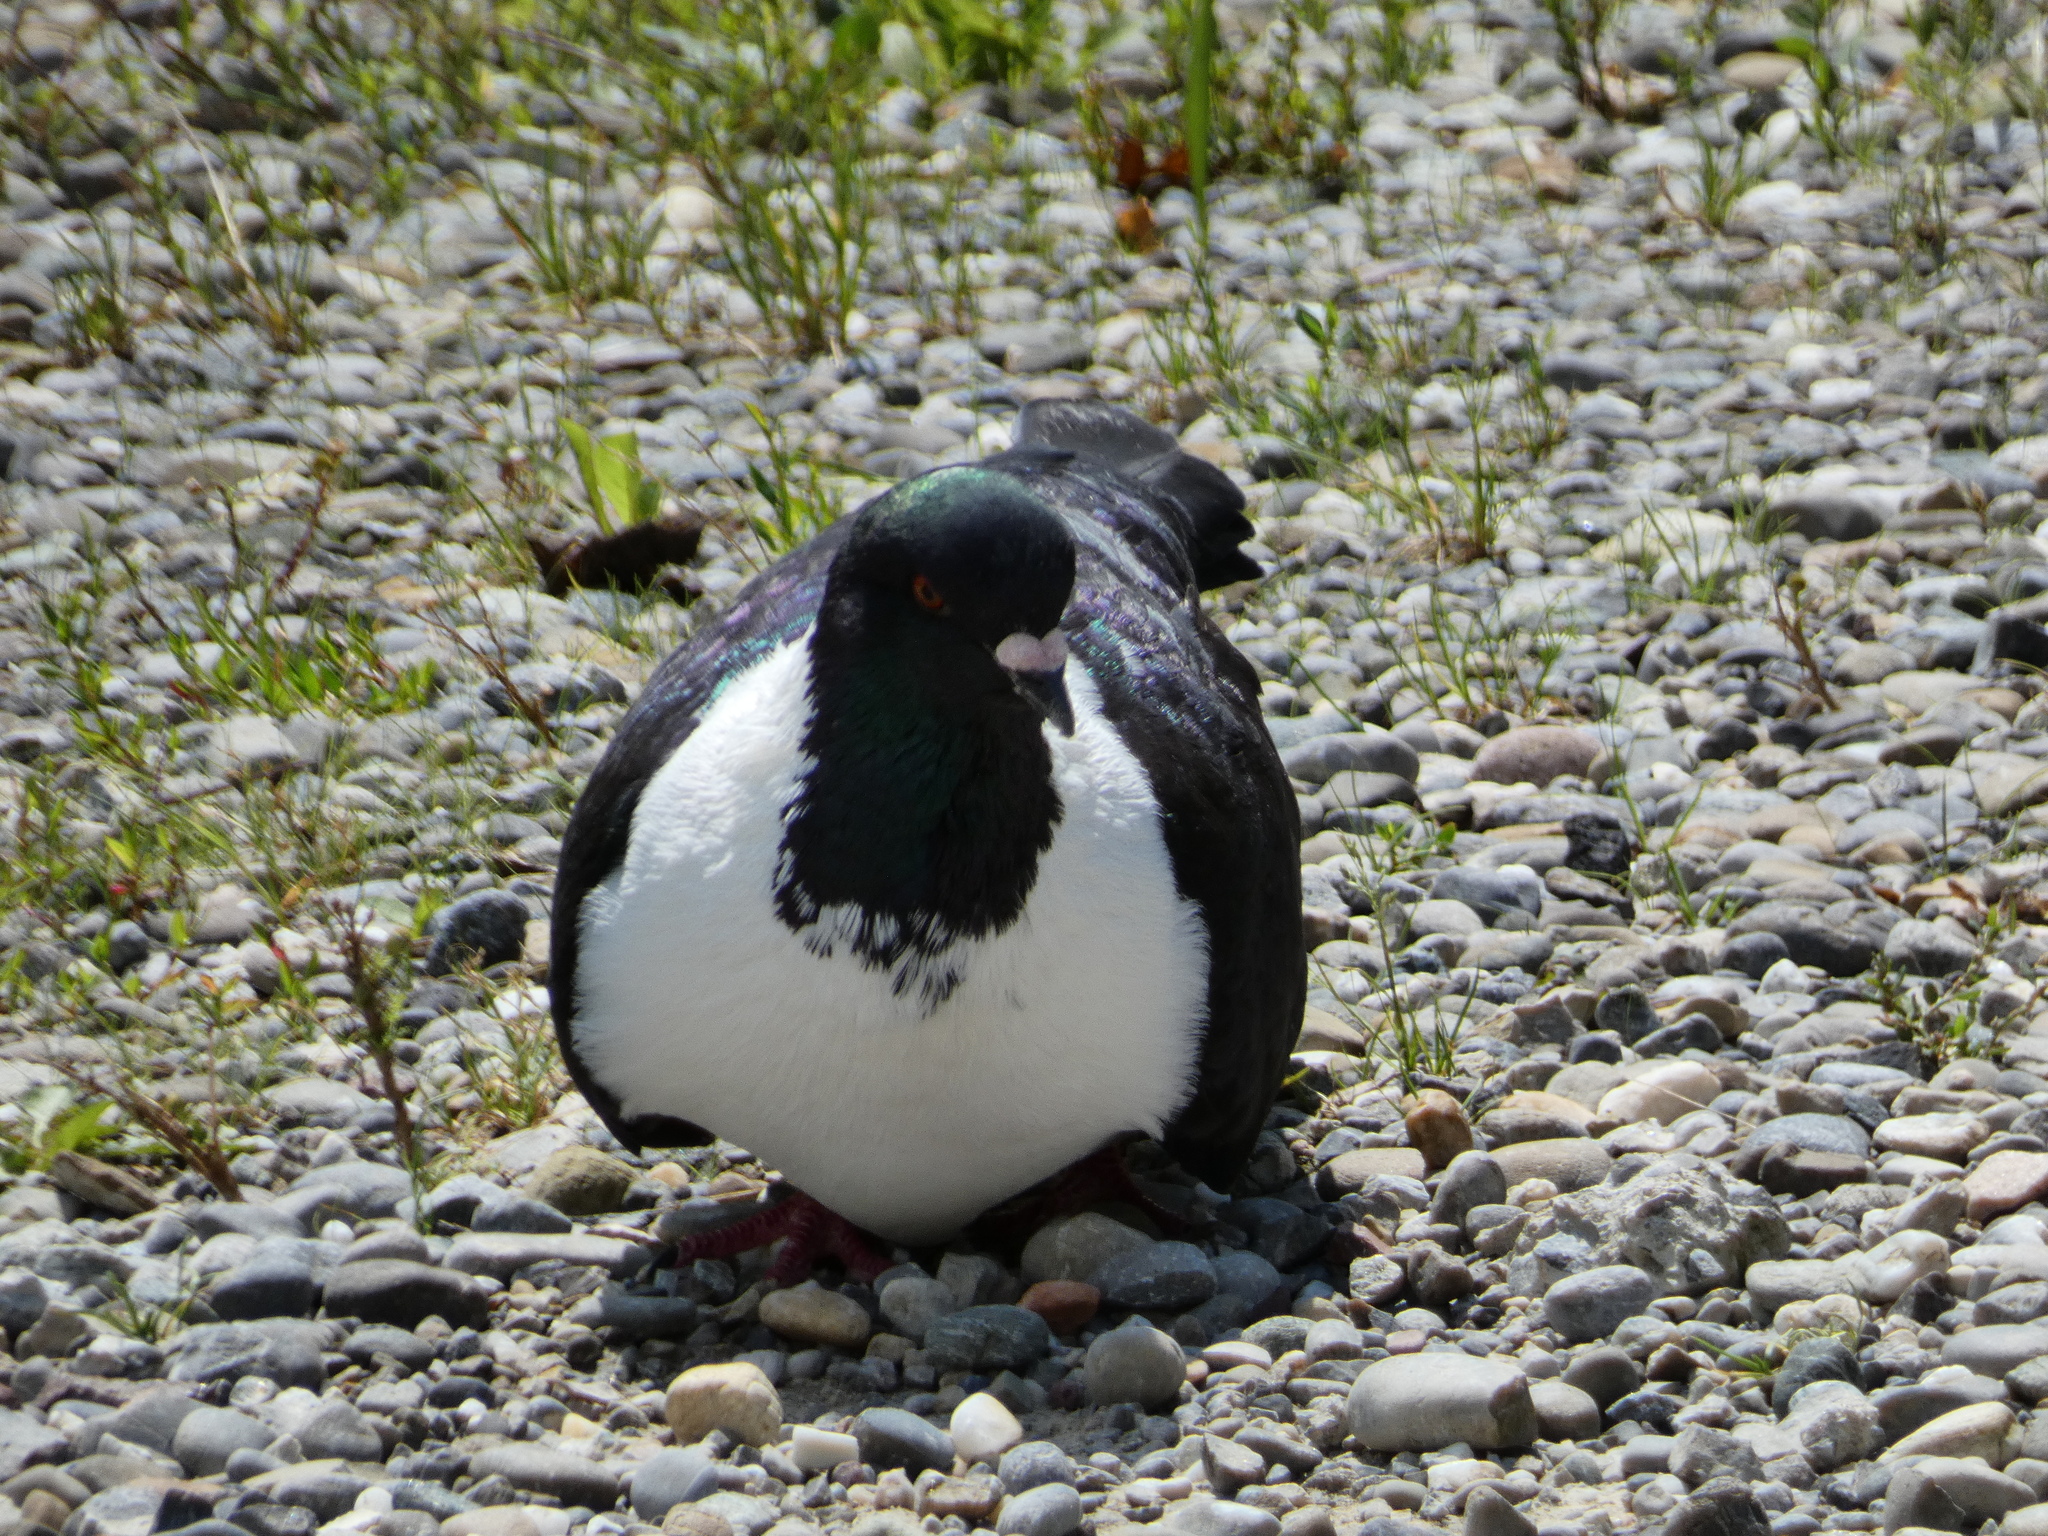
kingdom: Animalia
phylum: Chordata
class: Aves
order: Columbiformes
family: Columbidae
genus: Columba
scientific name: Columba livia
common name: Rock pigeon
